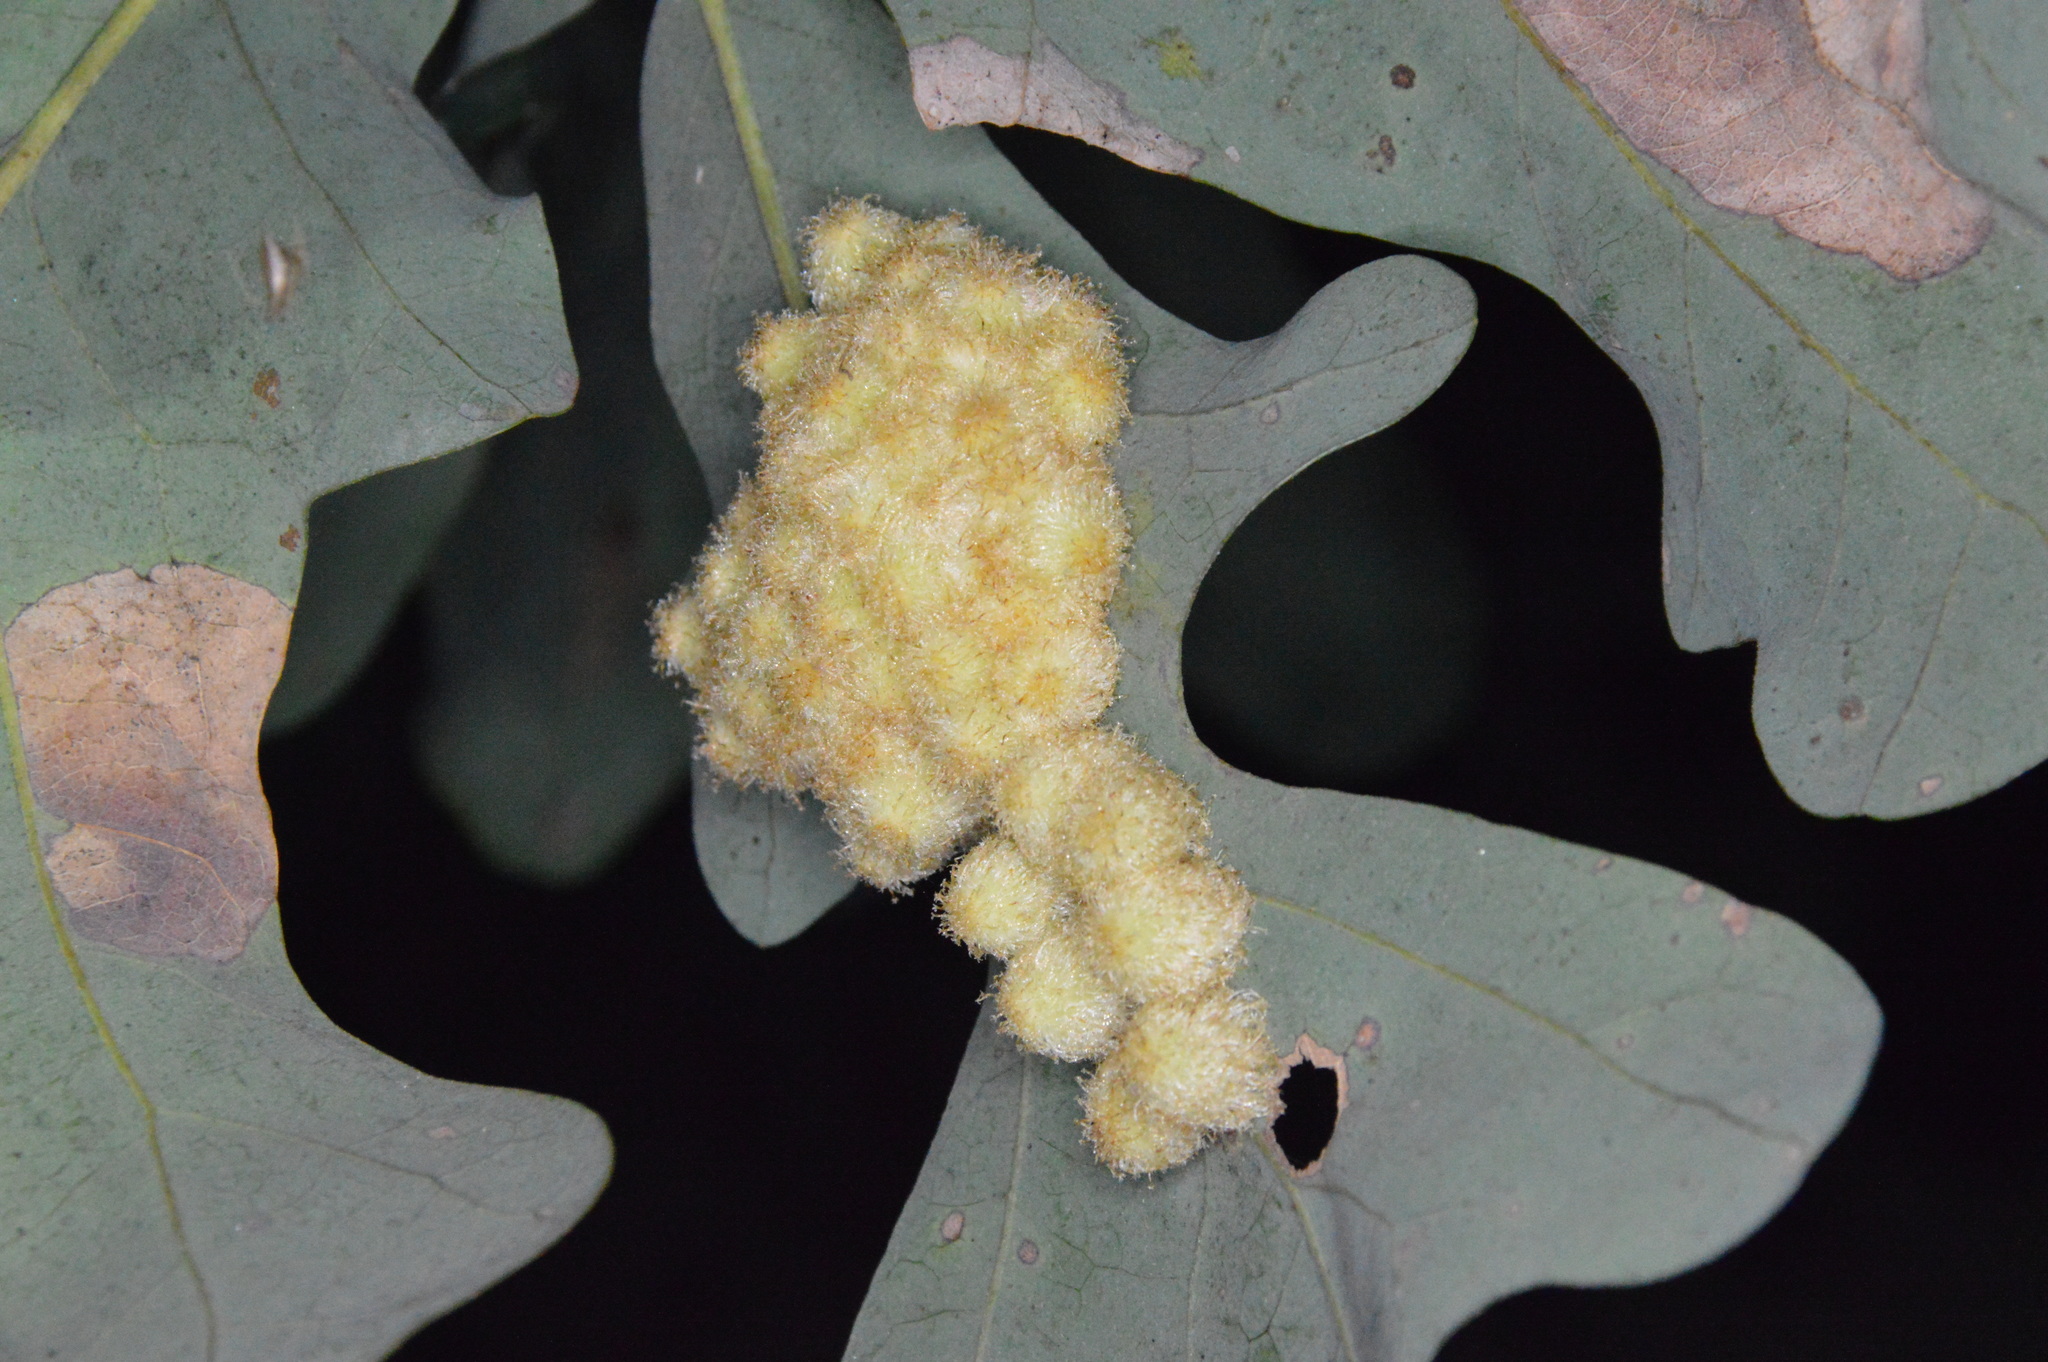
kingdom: Animalia
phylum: Arthropoda
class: Insecta
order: Hymenoptera
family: Cynipidae
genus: Andricus
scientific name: Andricus
